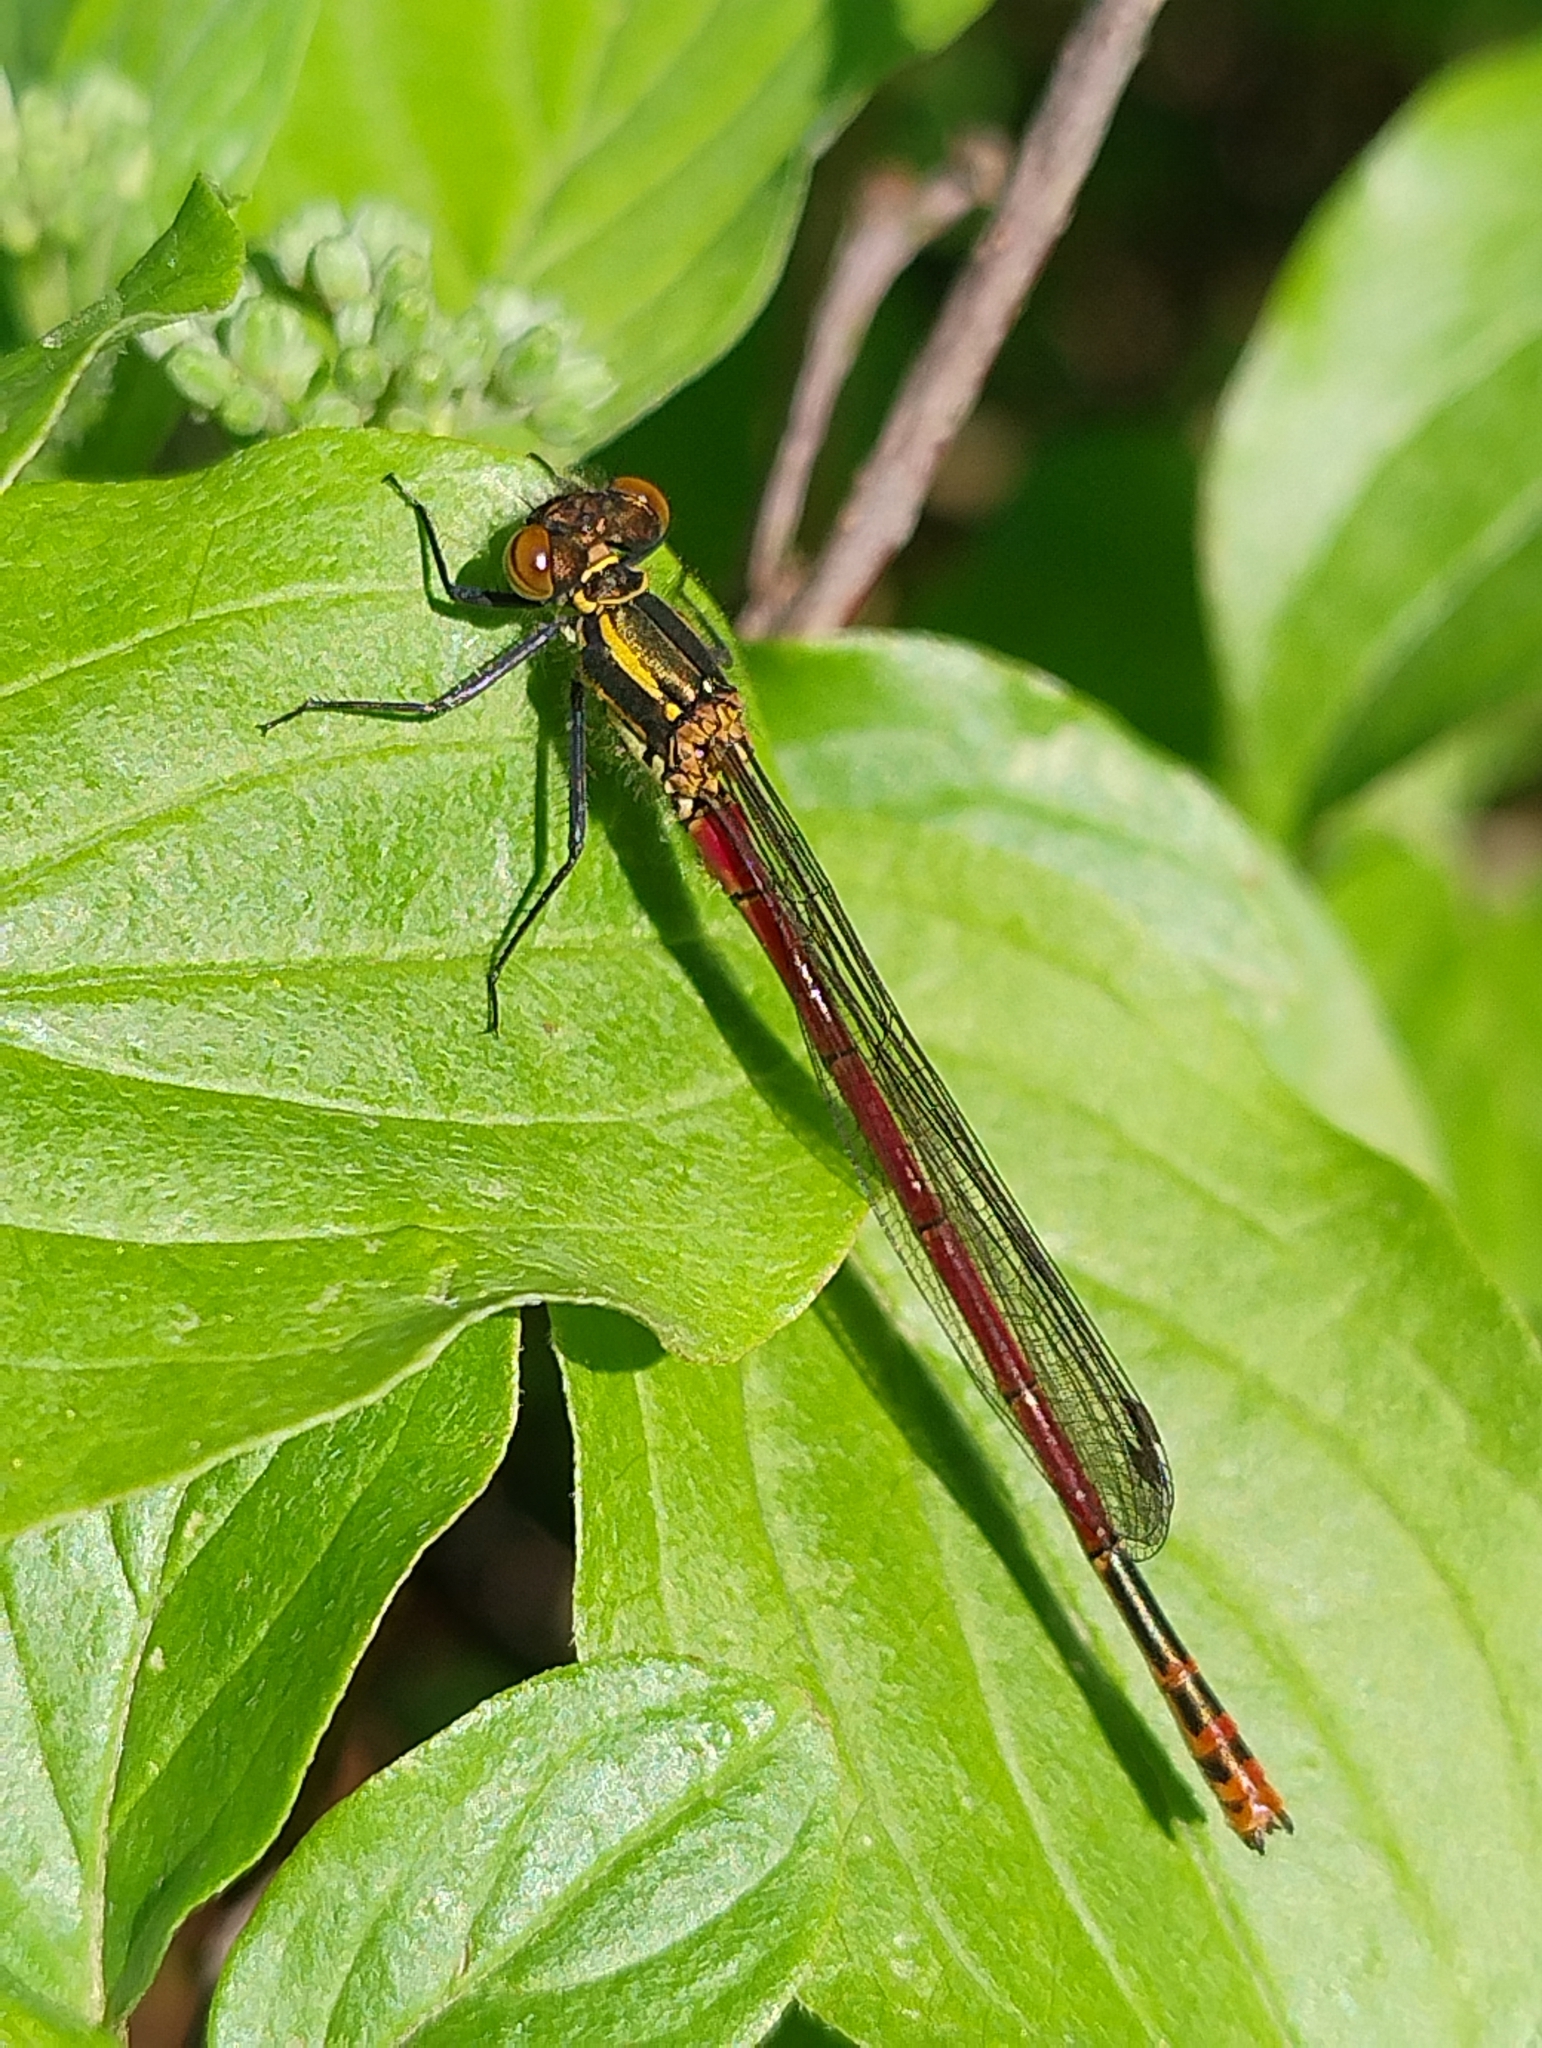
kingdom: Animalia
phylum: Arthropoda
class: Insecta
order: Odonata
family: Coenagrionidae
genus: Pyrrhosoma
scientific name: Pyrrhosoma nymphula
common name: Large red damsel
